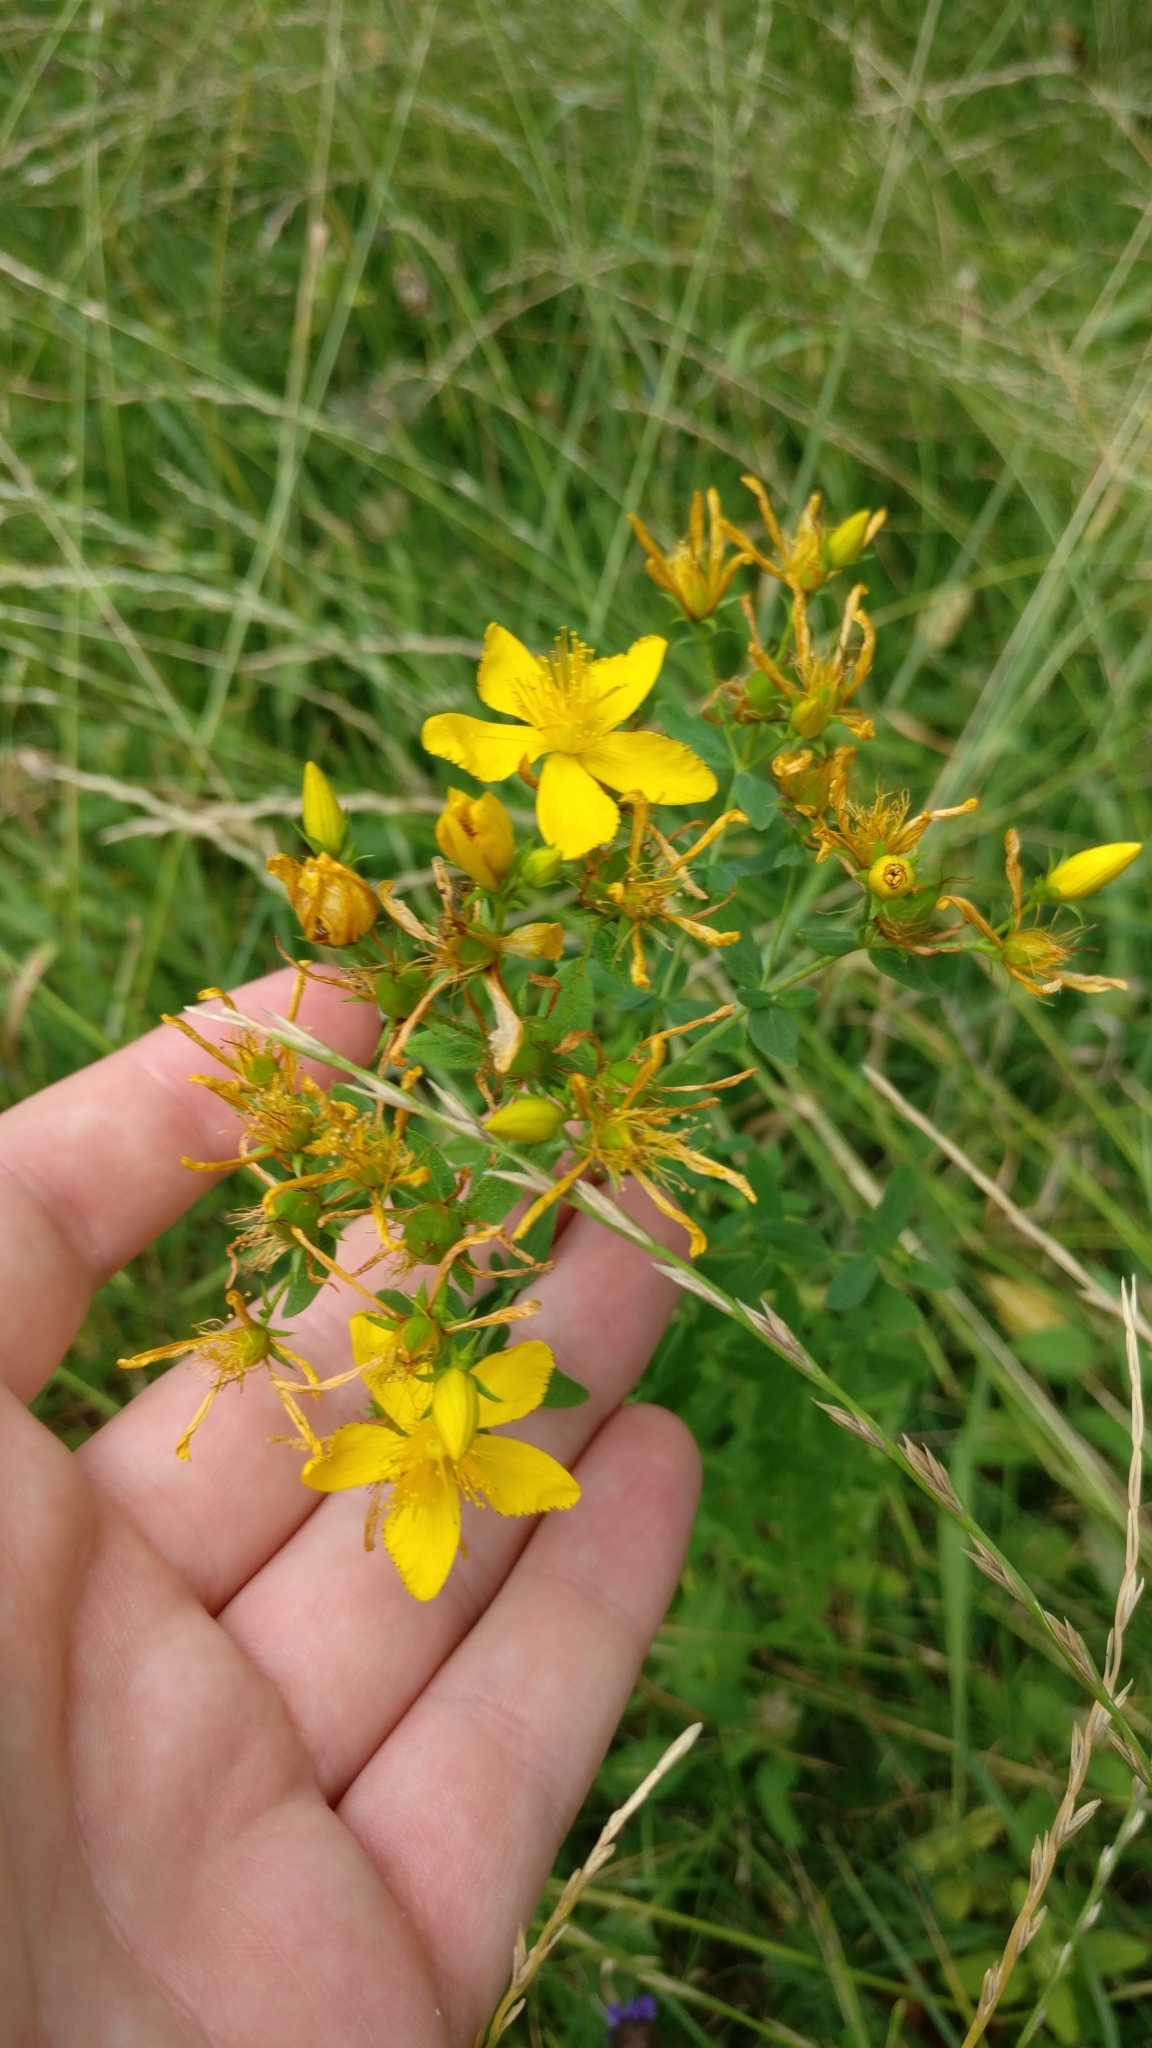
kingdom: Plantae
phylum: Tracheophyta
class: Magnoliopsida
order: Malpighiales
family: Hypericaceae
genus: Hypericum
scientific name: Hypericum perforatum
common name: Common st. johnswort
